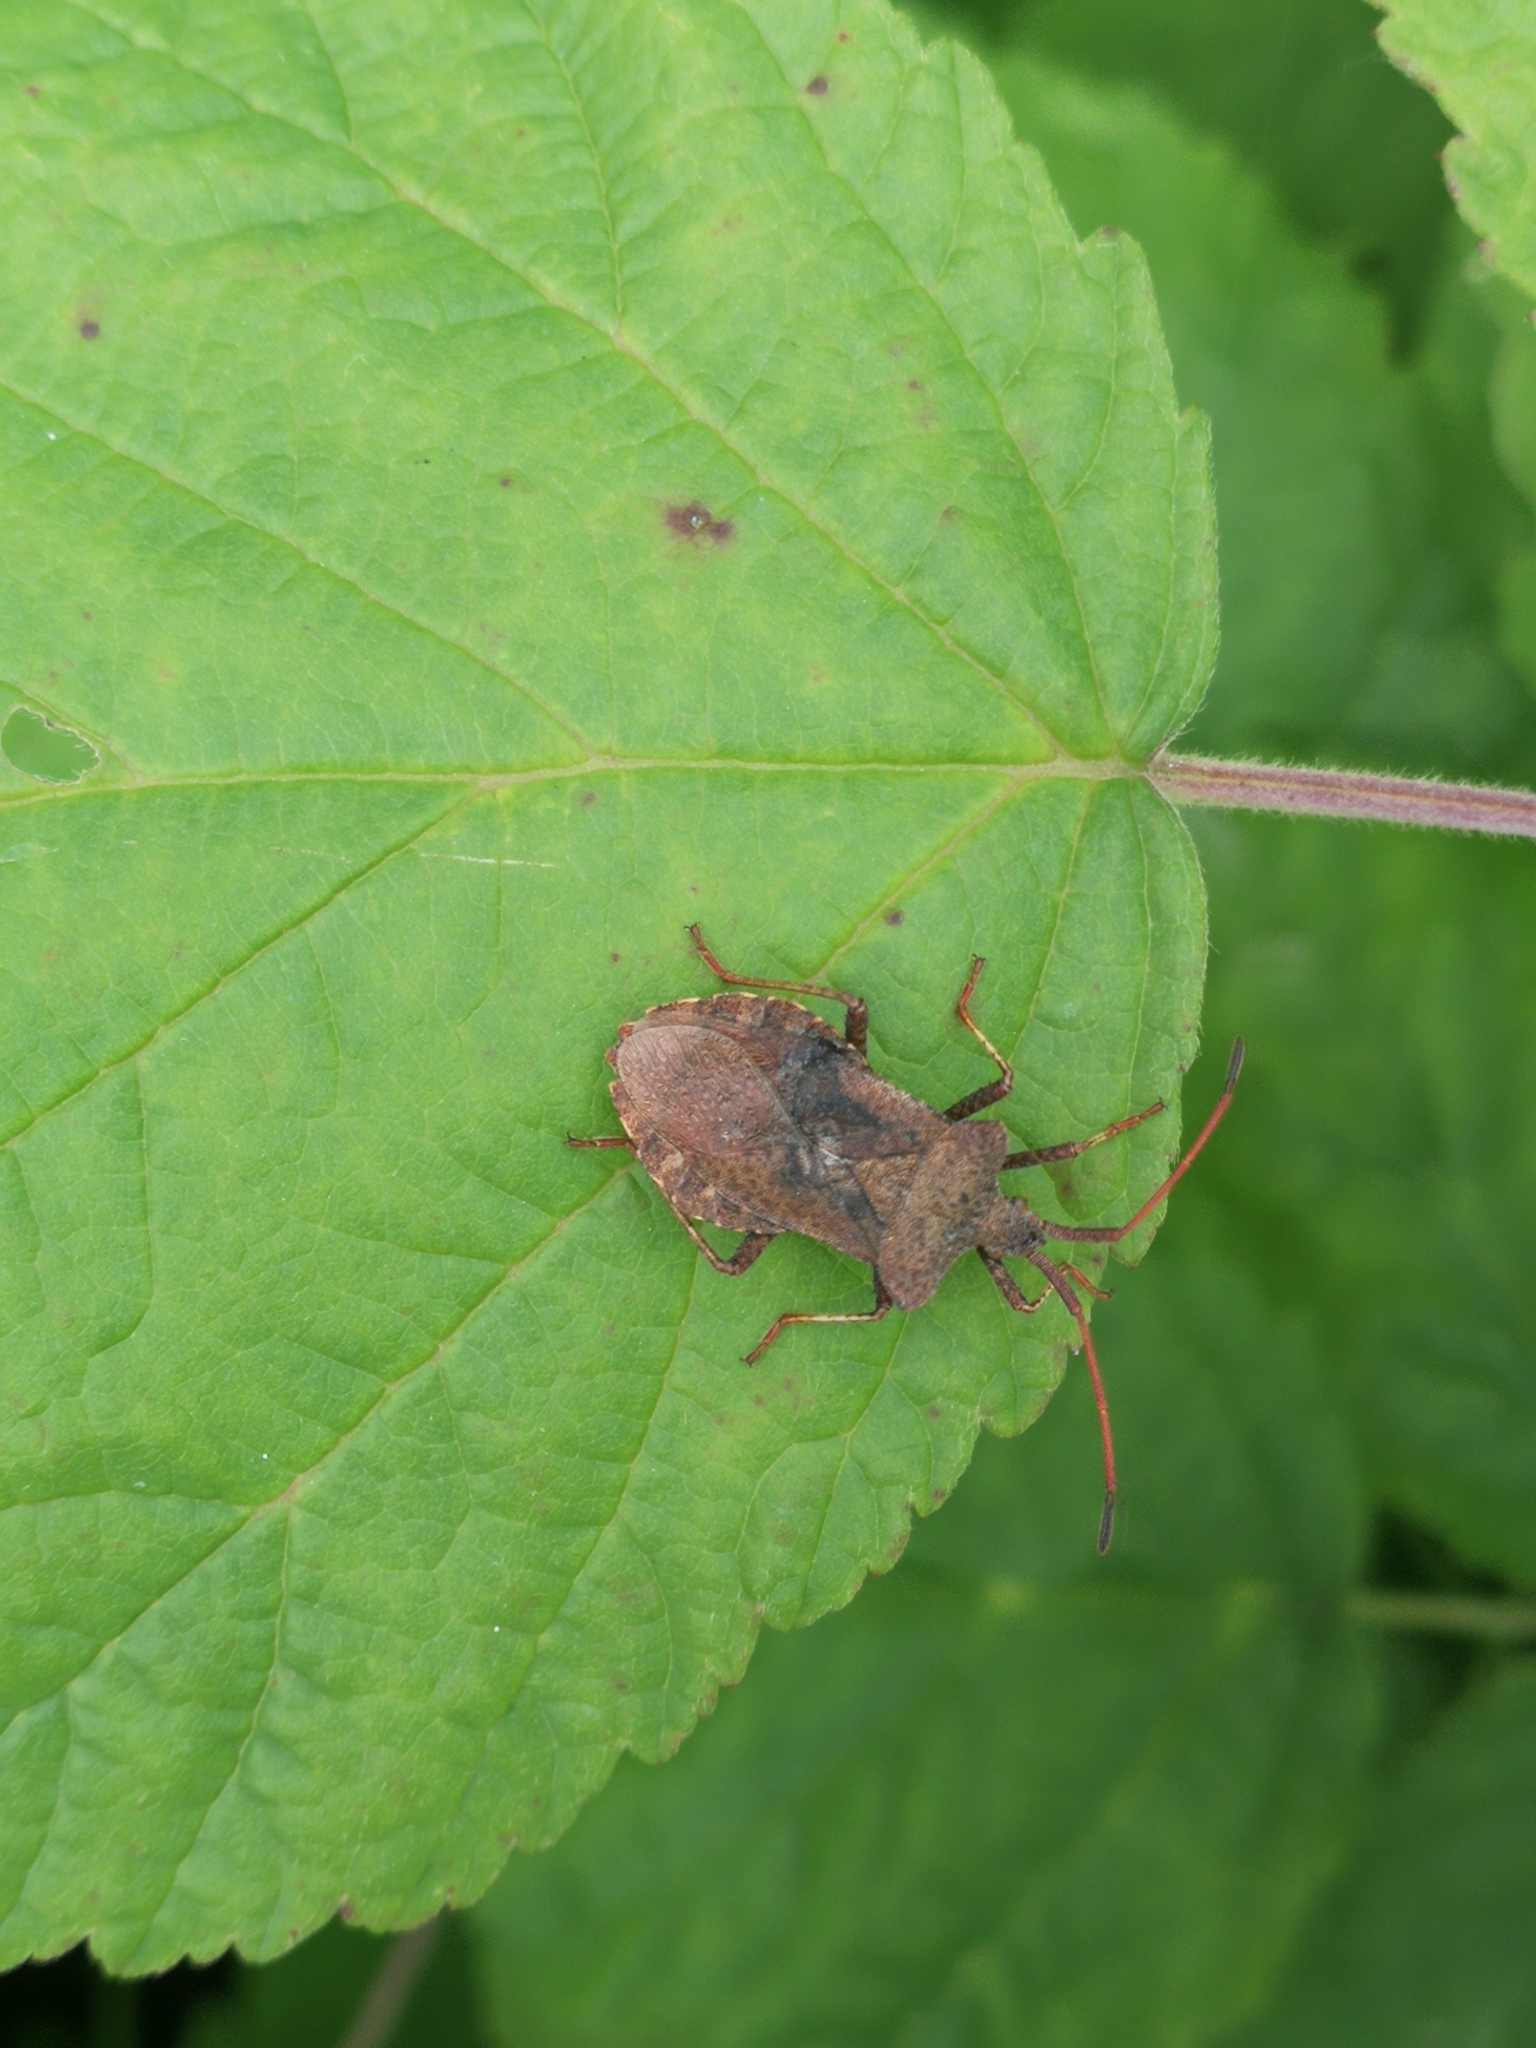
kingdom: Animalia
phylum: Arthropoda
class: Insecta
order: Hemiptera
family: Coreidae
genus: Coreus
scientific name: Coreus marginatus
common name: Dock bug
